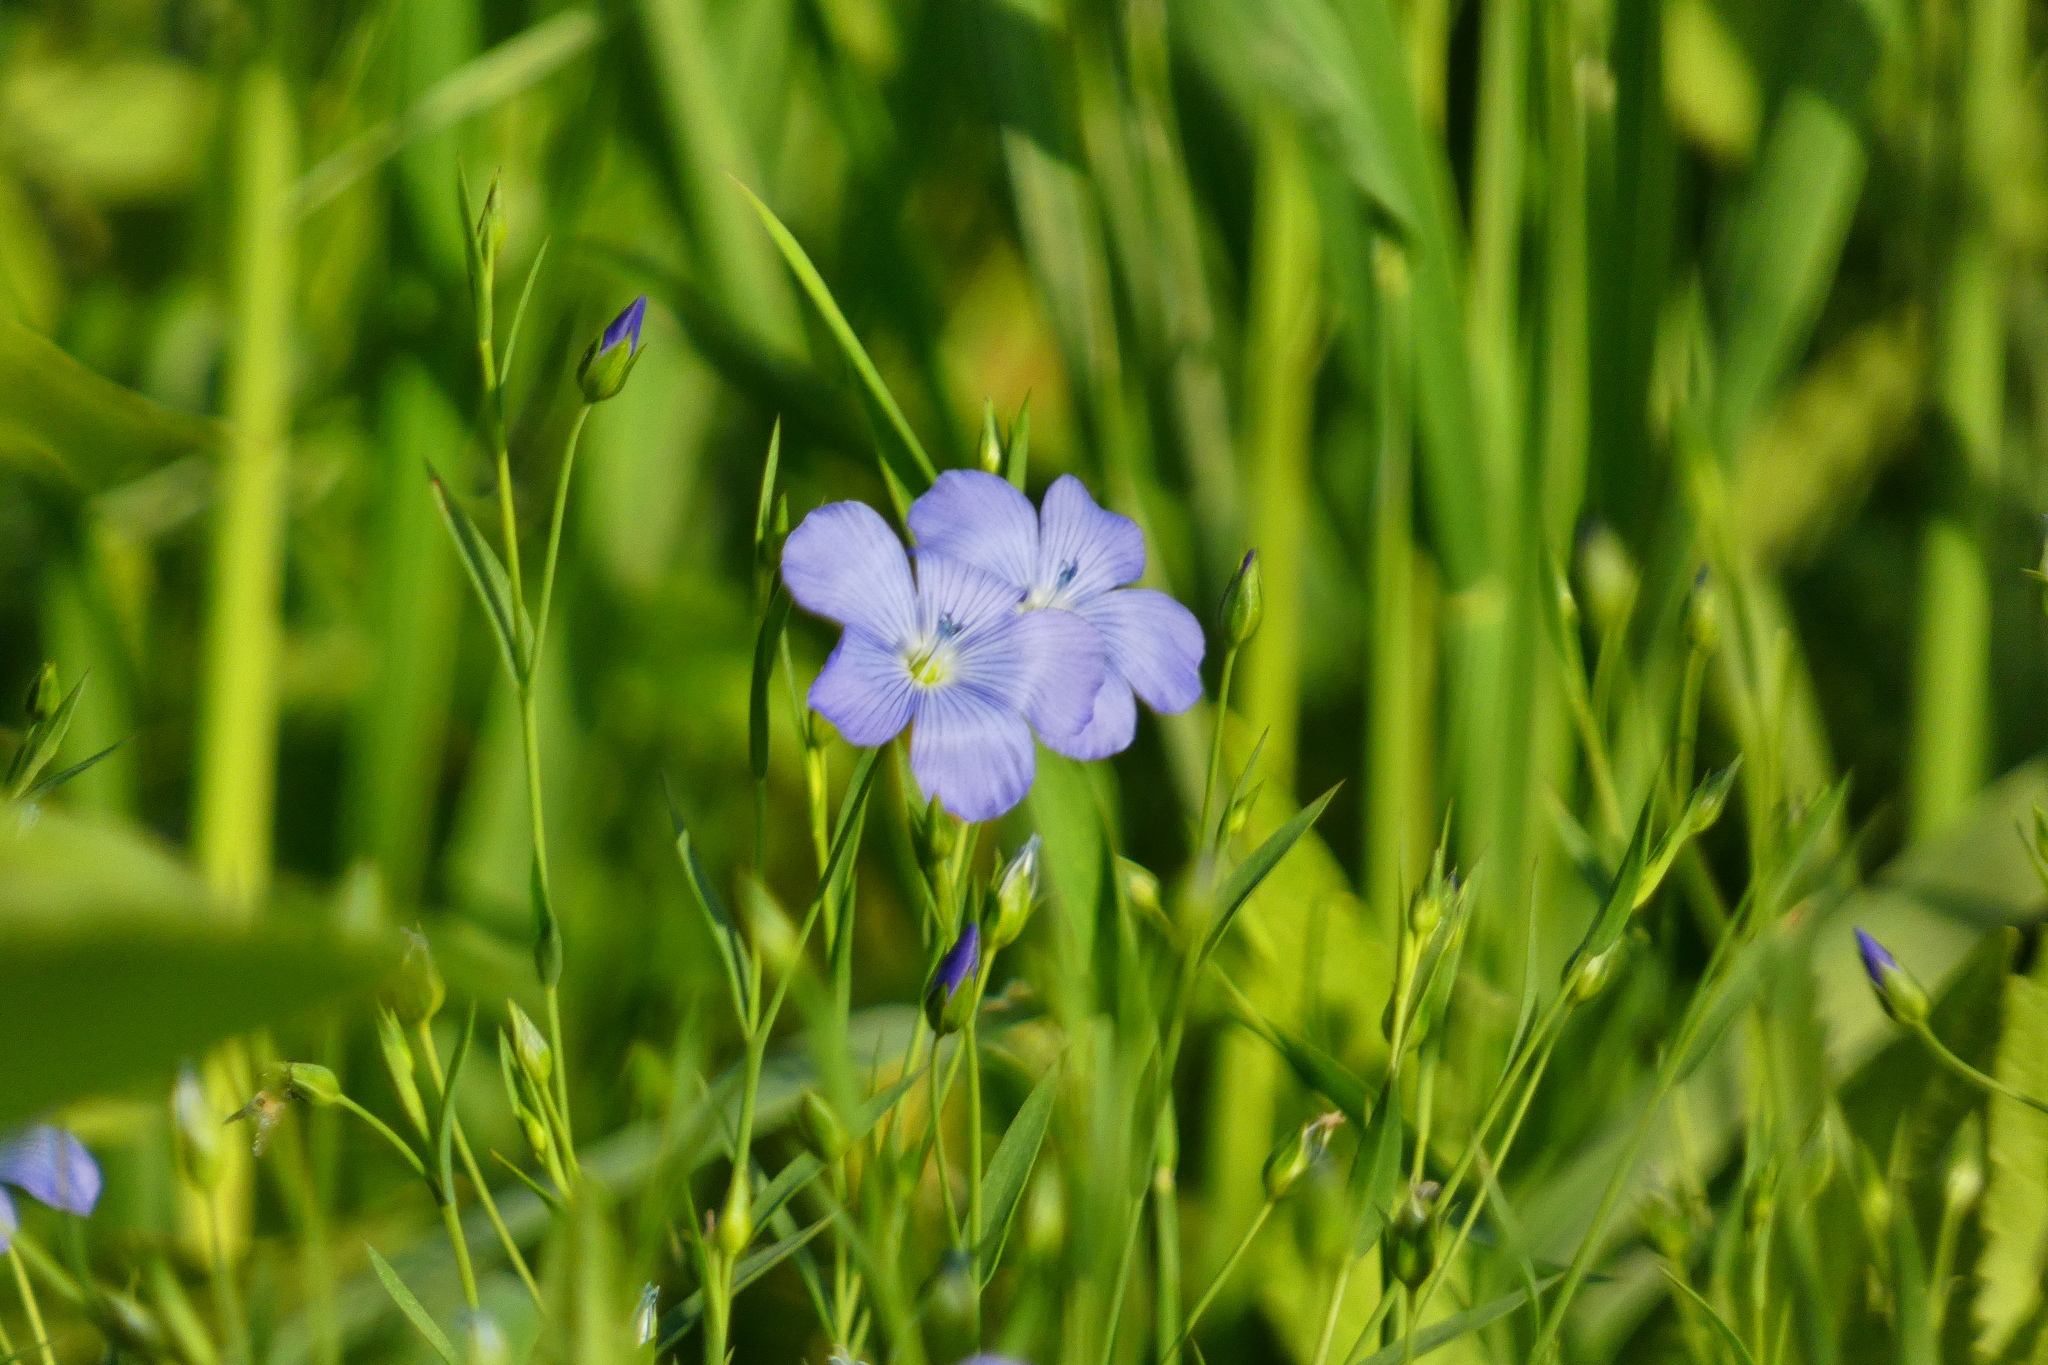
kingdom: Plantae
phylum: Tracheophyta
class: Magnoliopsida
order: Malpighiales
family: Linaceae
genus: Linum
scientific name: Linum usitatissimum
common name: Flax
